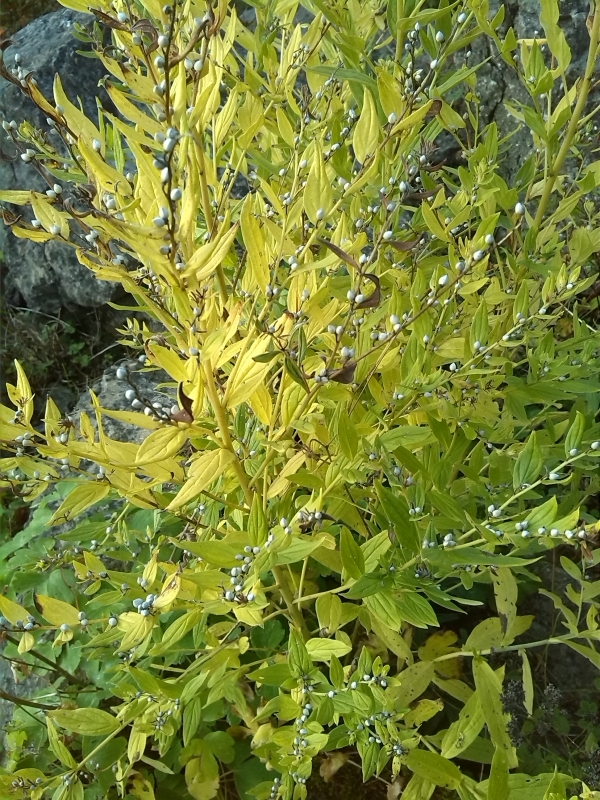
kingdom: Plantae
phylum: Tracheophyta
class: Magnoliopsida
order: Boraginales
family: Boraginaceae
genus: Lithospermum
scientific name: Lithospermum officinale
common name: Common gromwell
